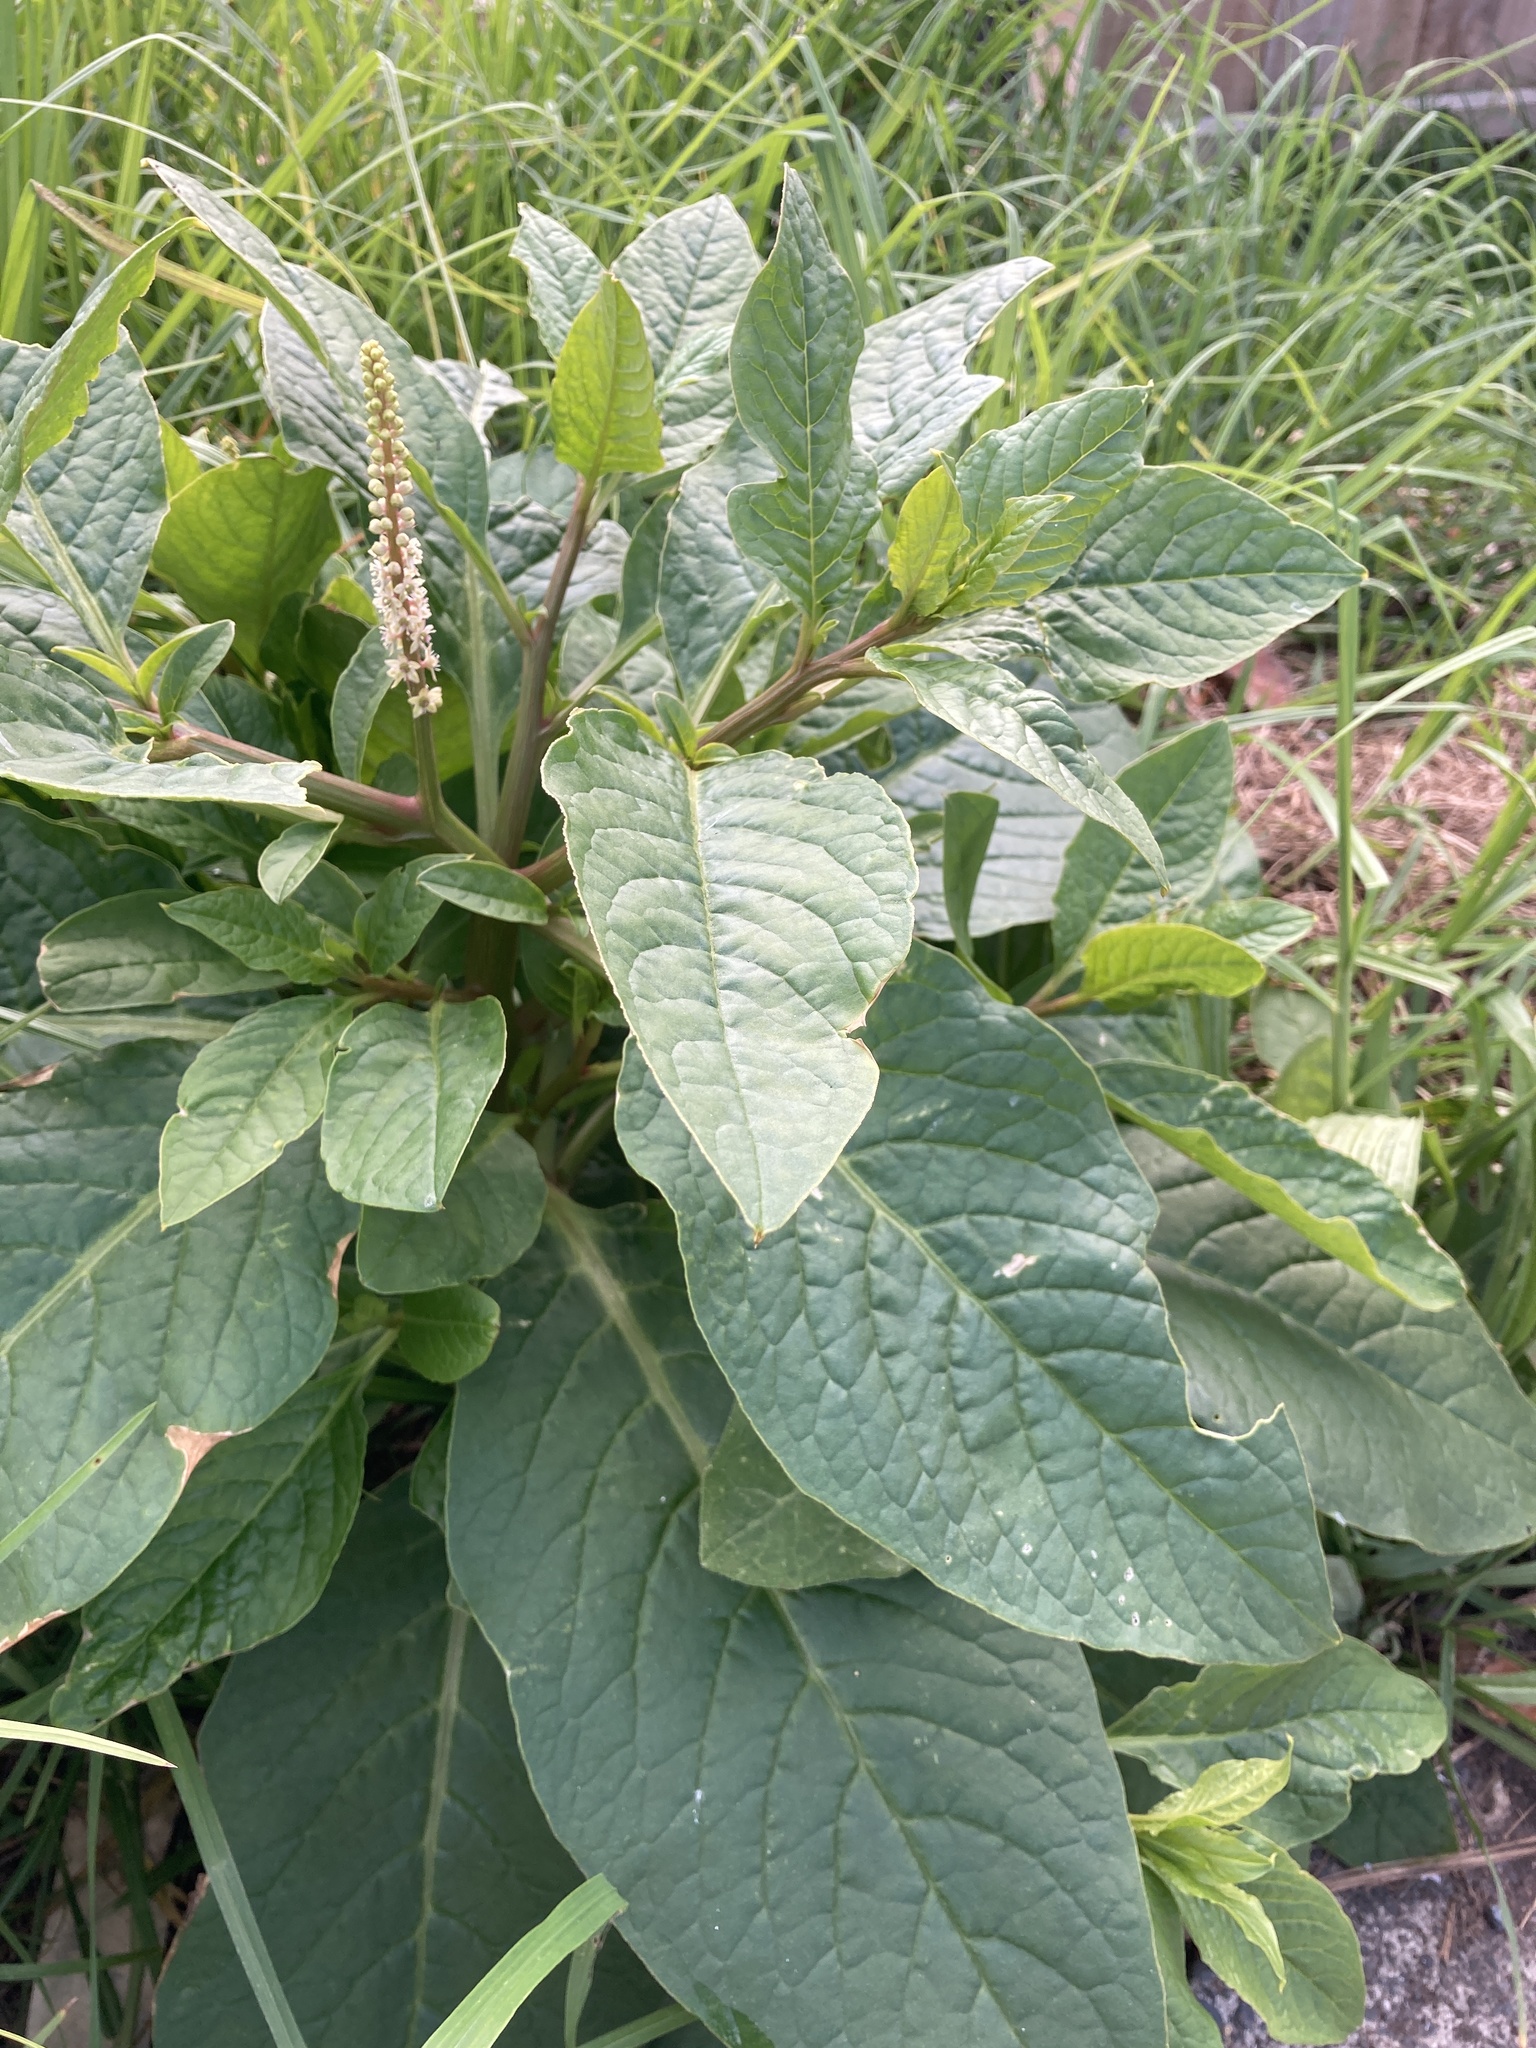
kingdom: Plantae
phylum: Tracheophyta
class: Magnoliopsida
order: Caryophyllales
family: Phytolaccaceae
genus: Phytolacca
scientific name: Phytolacca icosandra
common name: Button pokeweed
